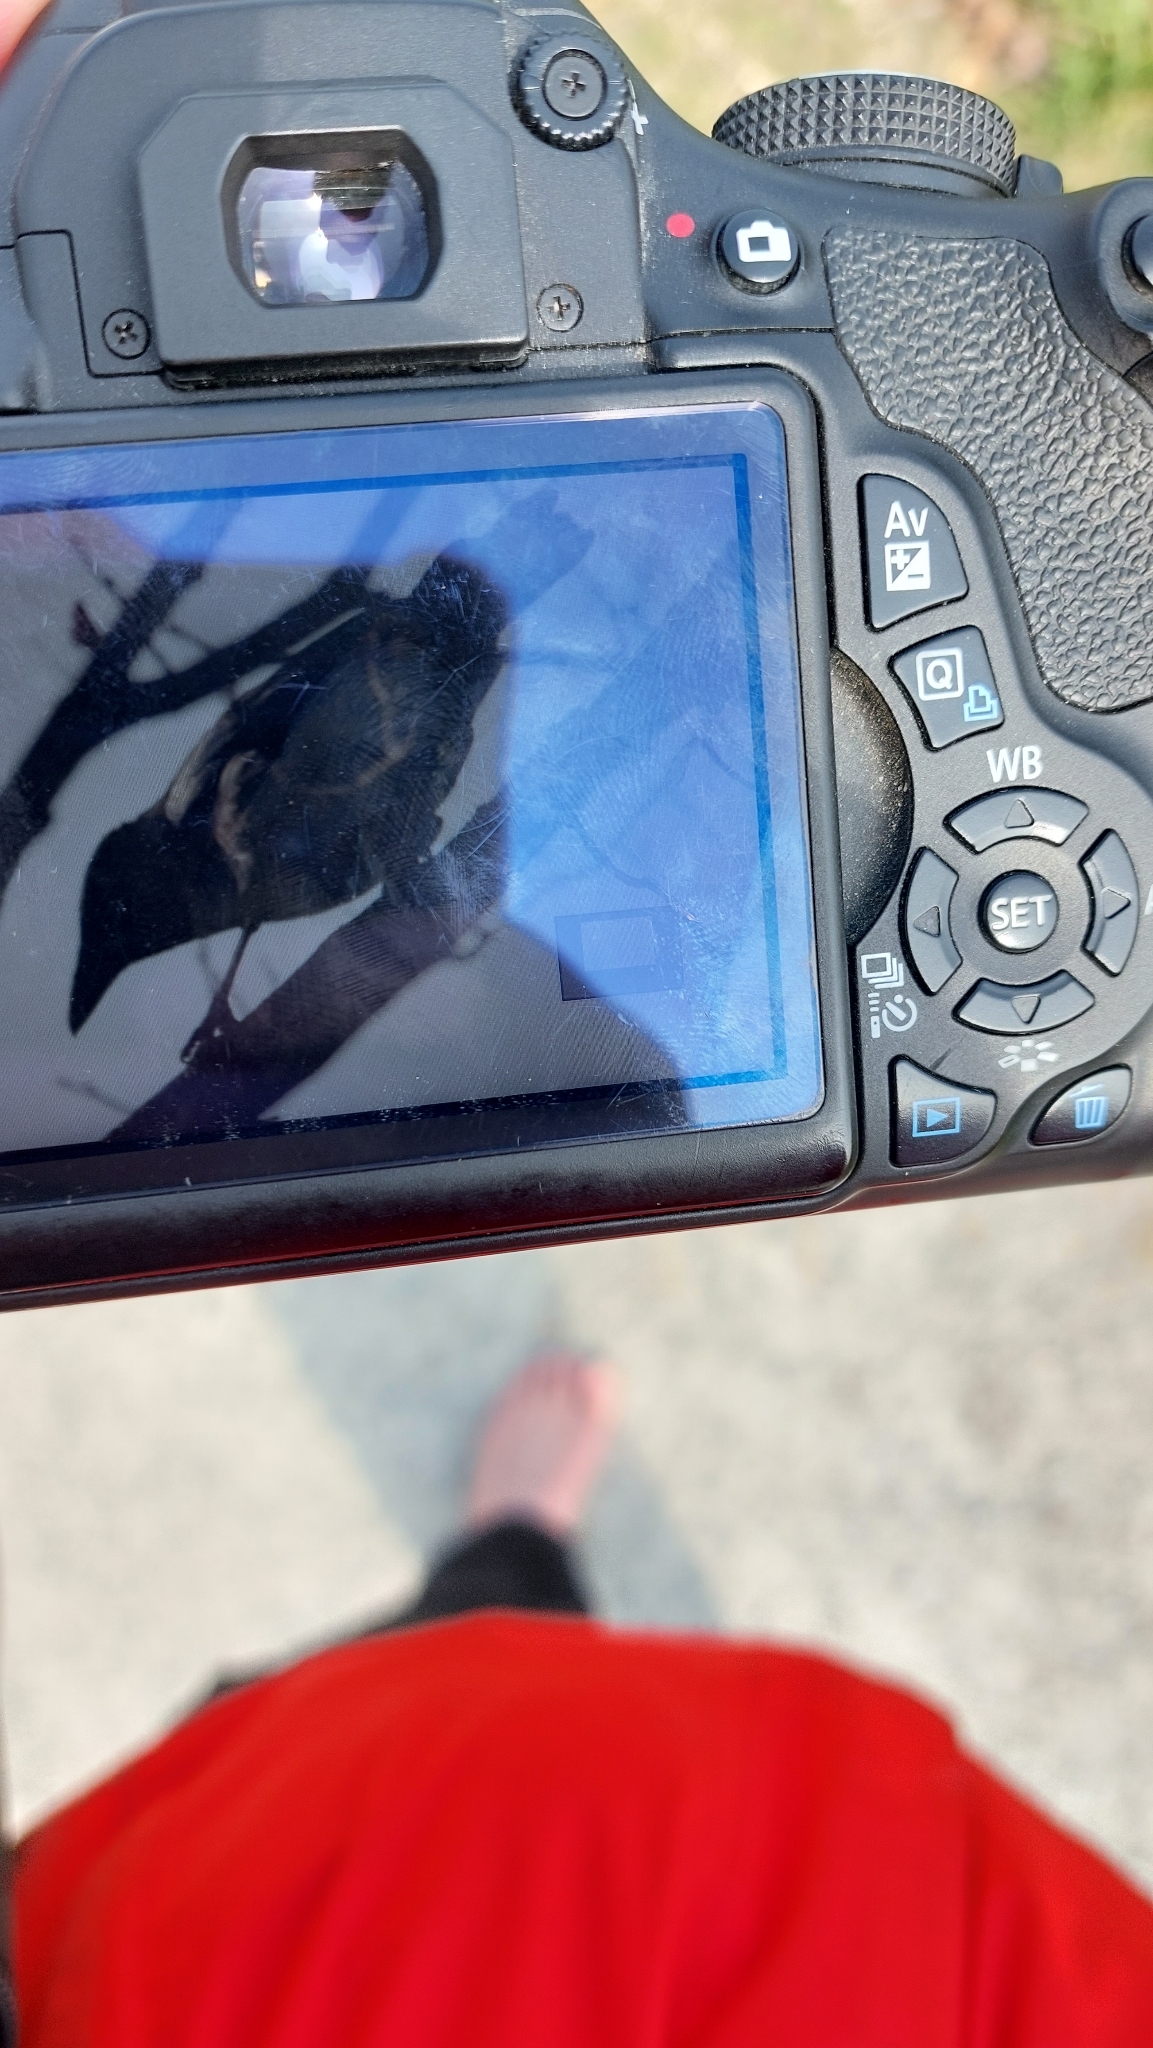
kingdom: Animalia
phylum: Chordata
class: Aves
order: Passeriformes
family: Corvidae
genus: Corvus
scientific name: Corvus cornix
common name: Hooded crow
